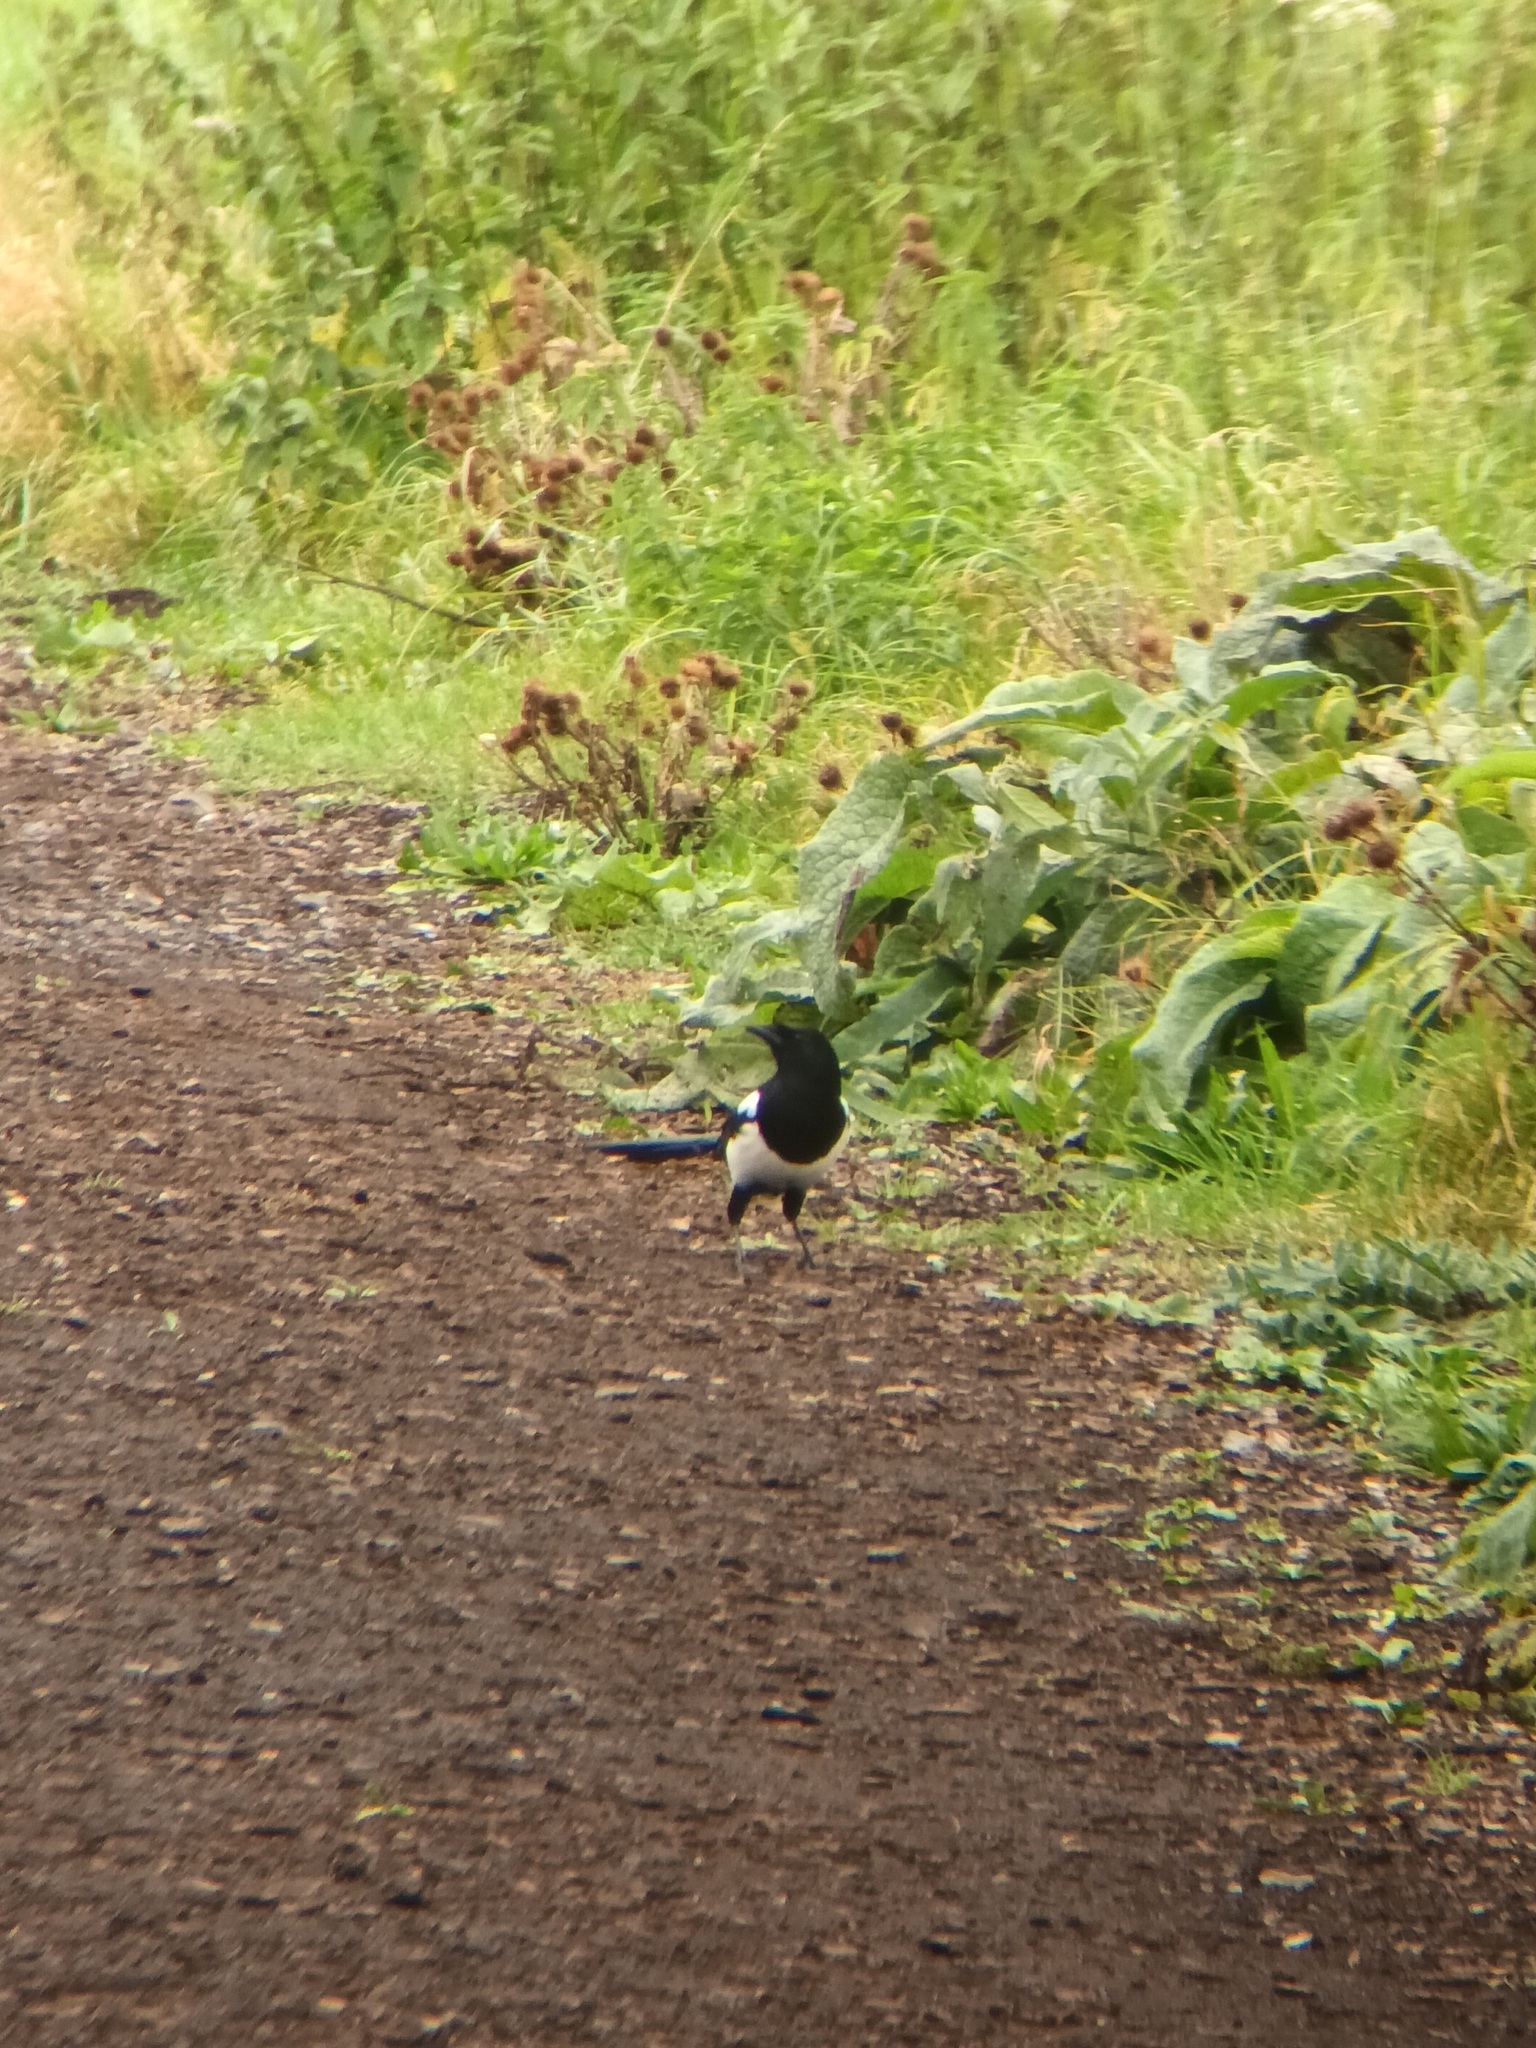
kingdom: Animalia
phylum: Chordata
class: Aves
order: Passeriformes
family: Corvidae
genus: Pica
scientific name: Pica pica
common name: Eurasian magpie
